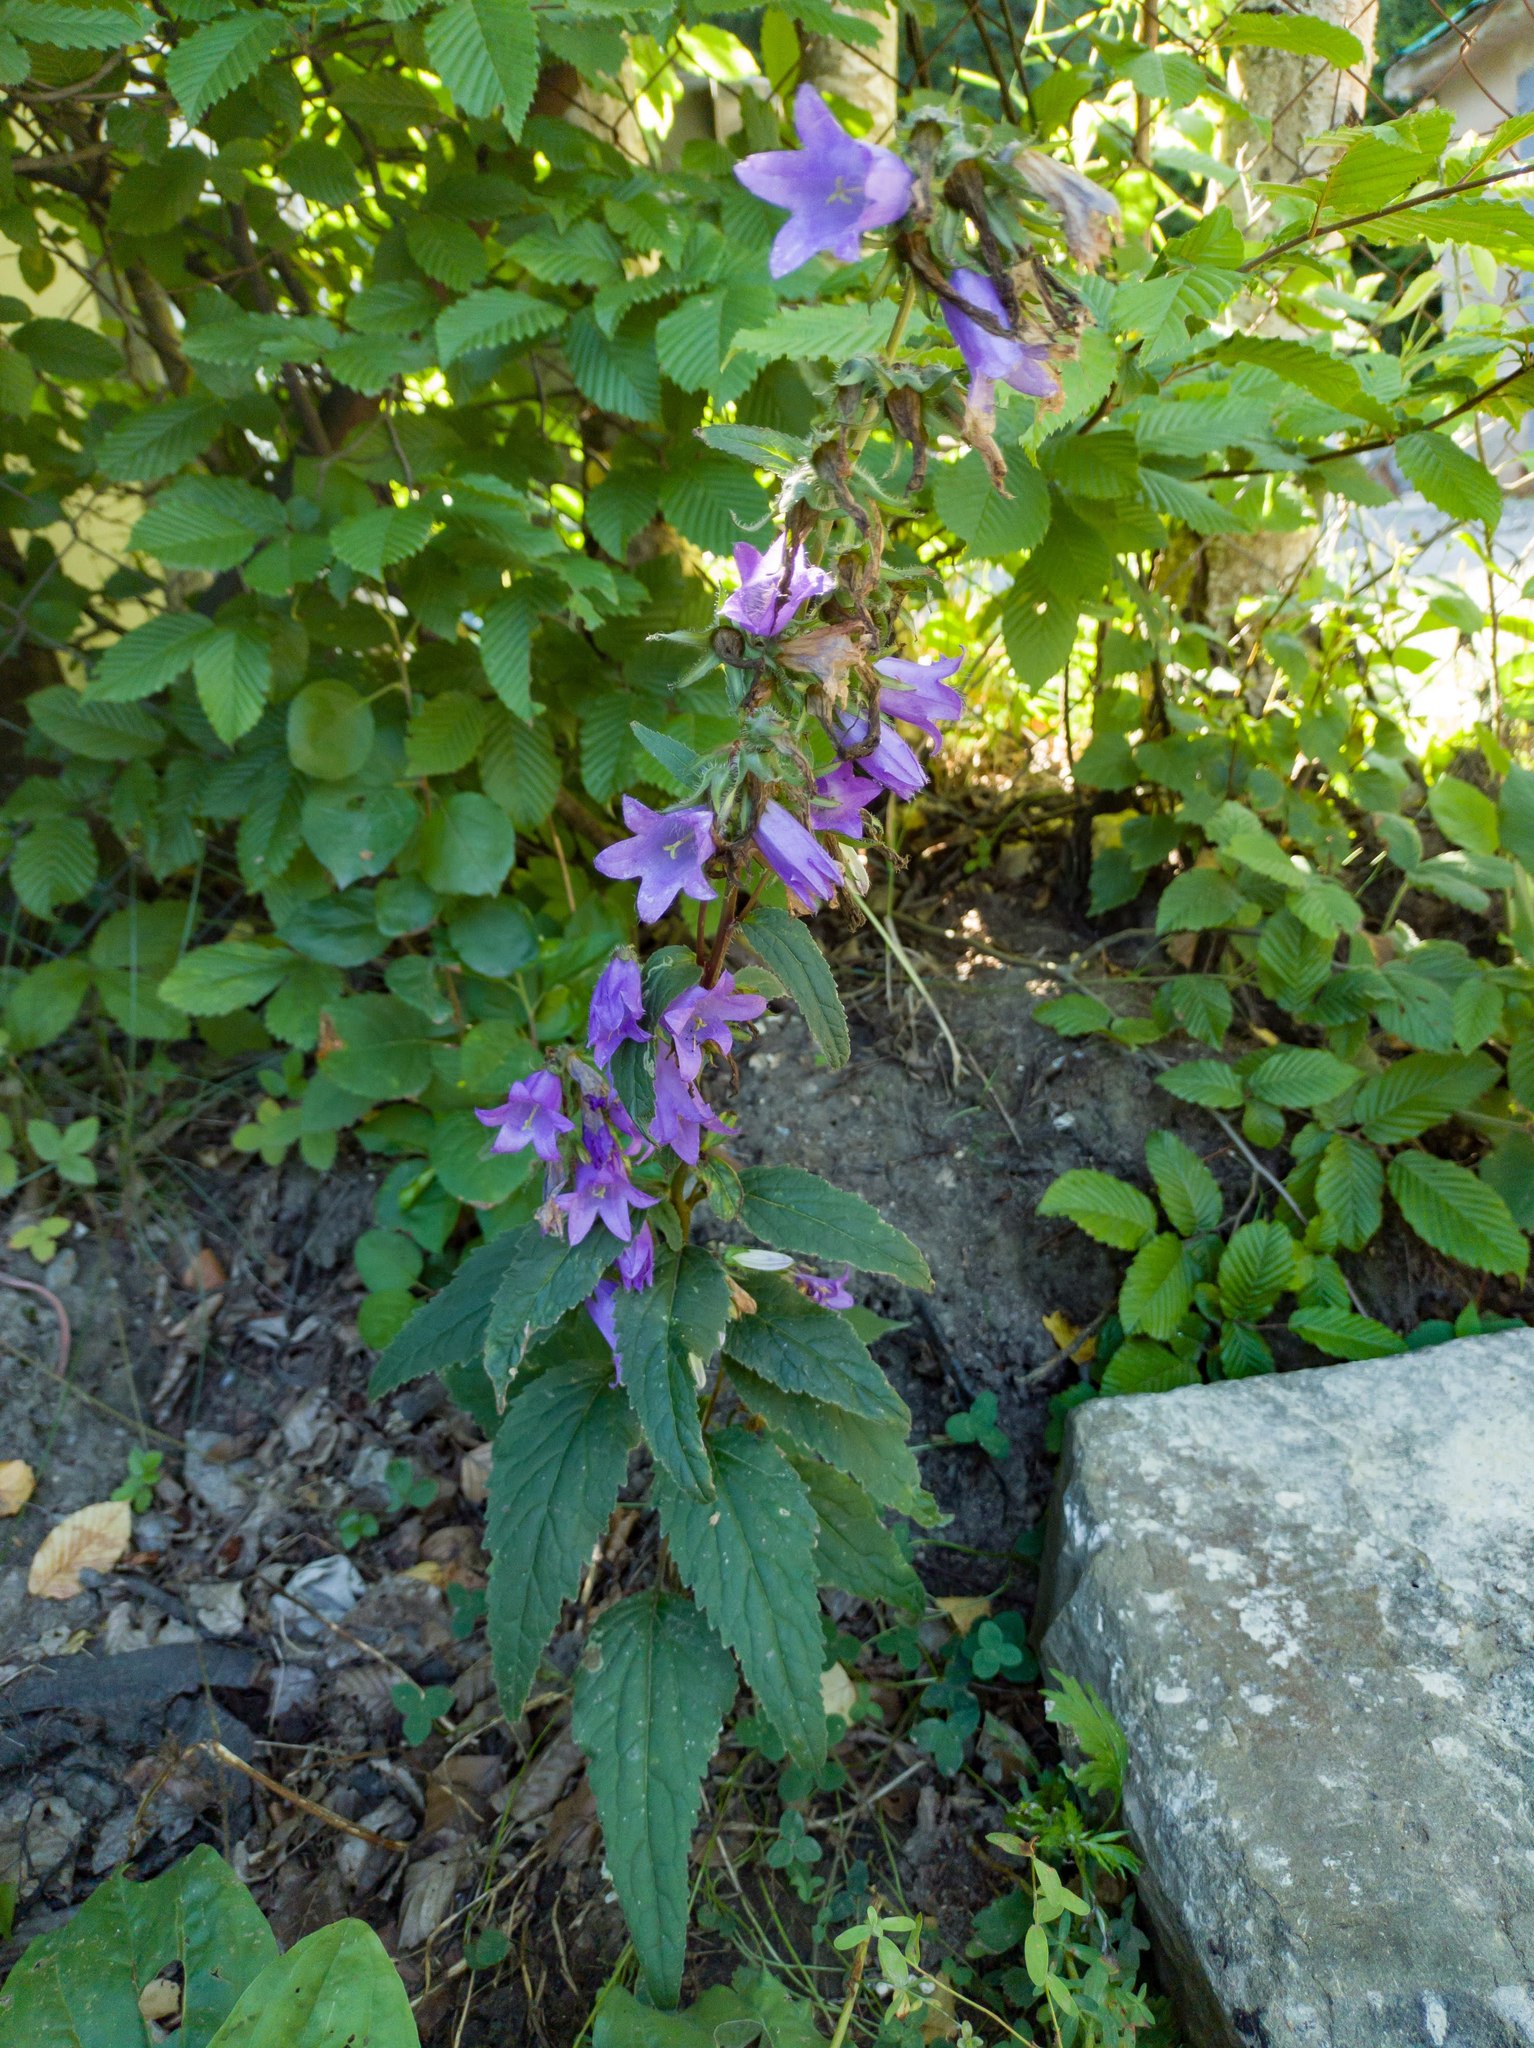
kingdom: Plantae
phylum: Tracheophyta
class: Magnoliopsida
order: Asterales
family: Campanulaceae
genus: Campanula
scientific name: Campanula trachelium
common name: Nettle-leaved bellflower
